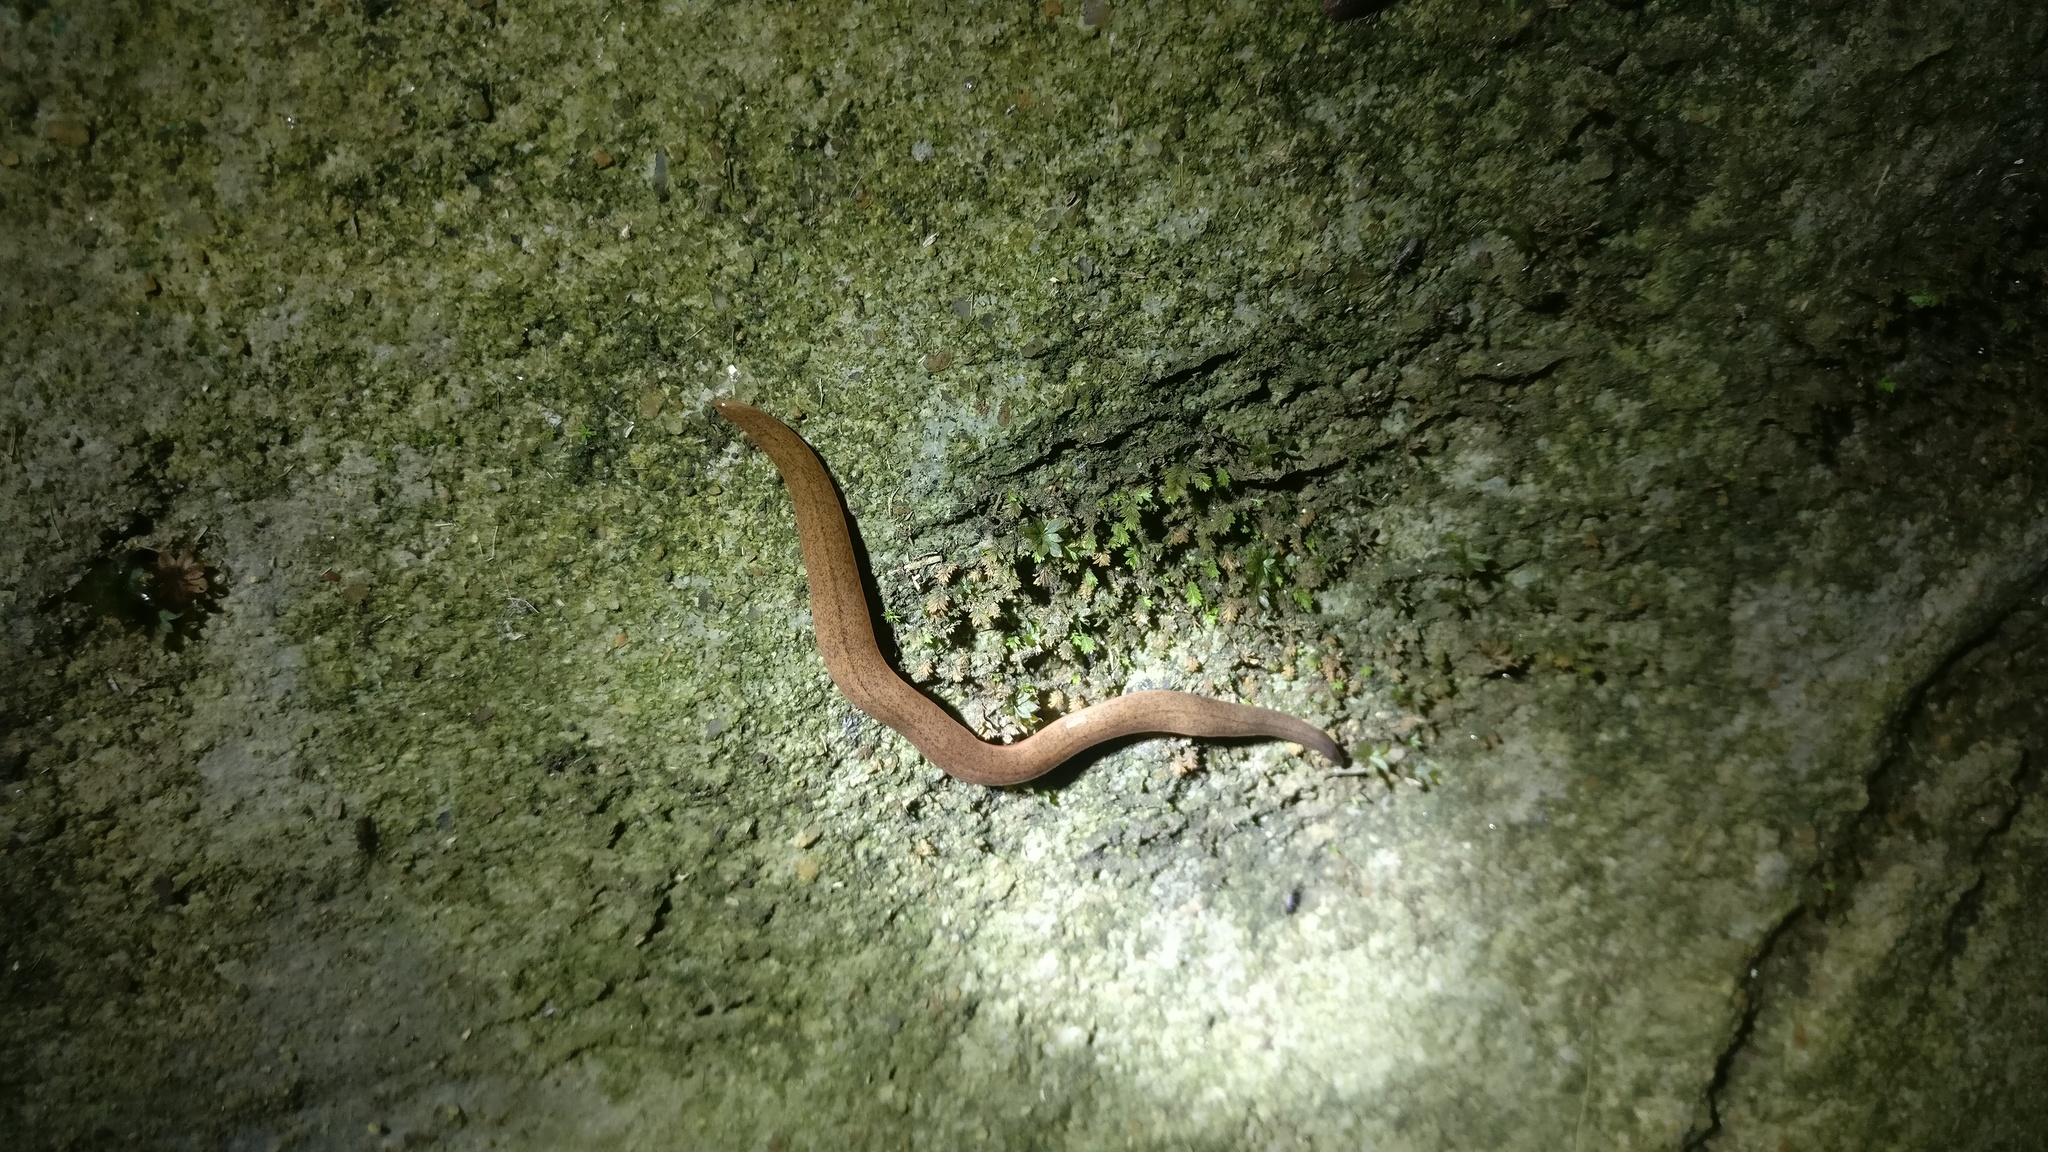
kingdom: Animalia
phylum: Platyhelminthes
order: Tricladida
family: Geoplanidae
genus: Incapora
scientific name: Incapora anamallensis
